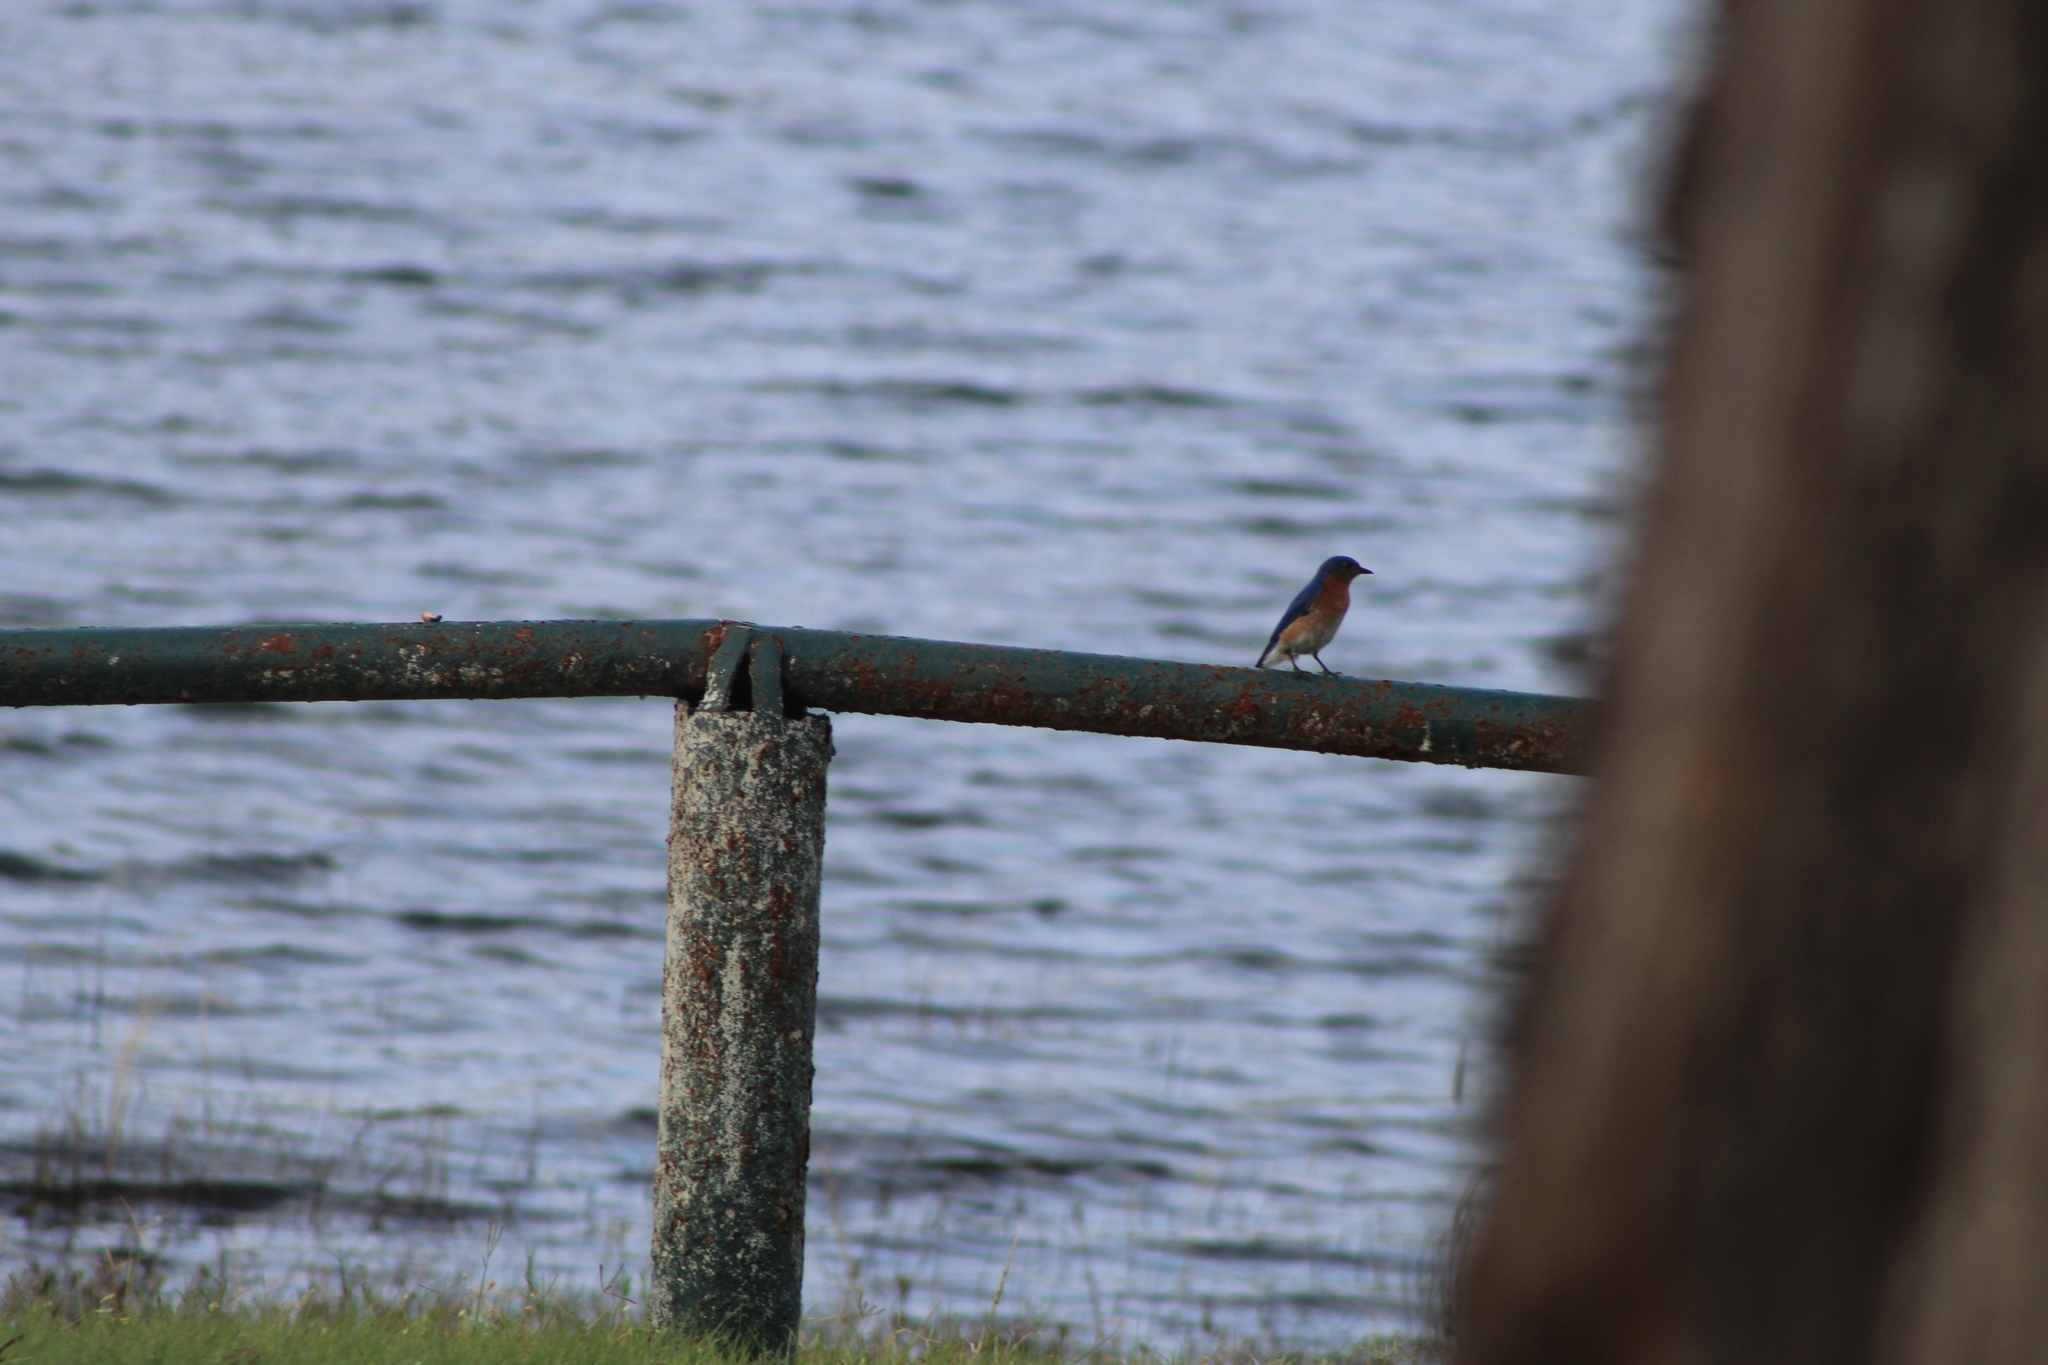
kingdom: Animalia
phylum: Chordata
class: Aves
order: Passeriformes
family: Turdidae
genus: Sialia
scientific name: Sialia sialis
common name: Eastern bluebird
